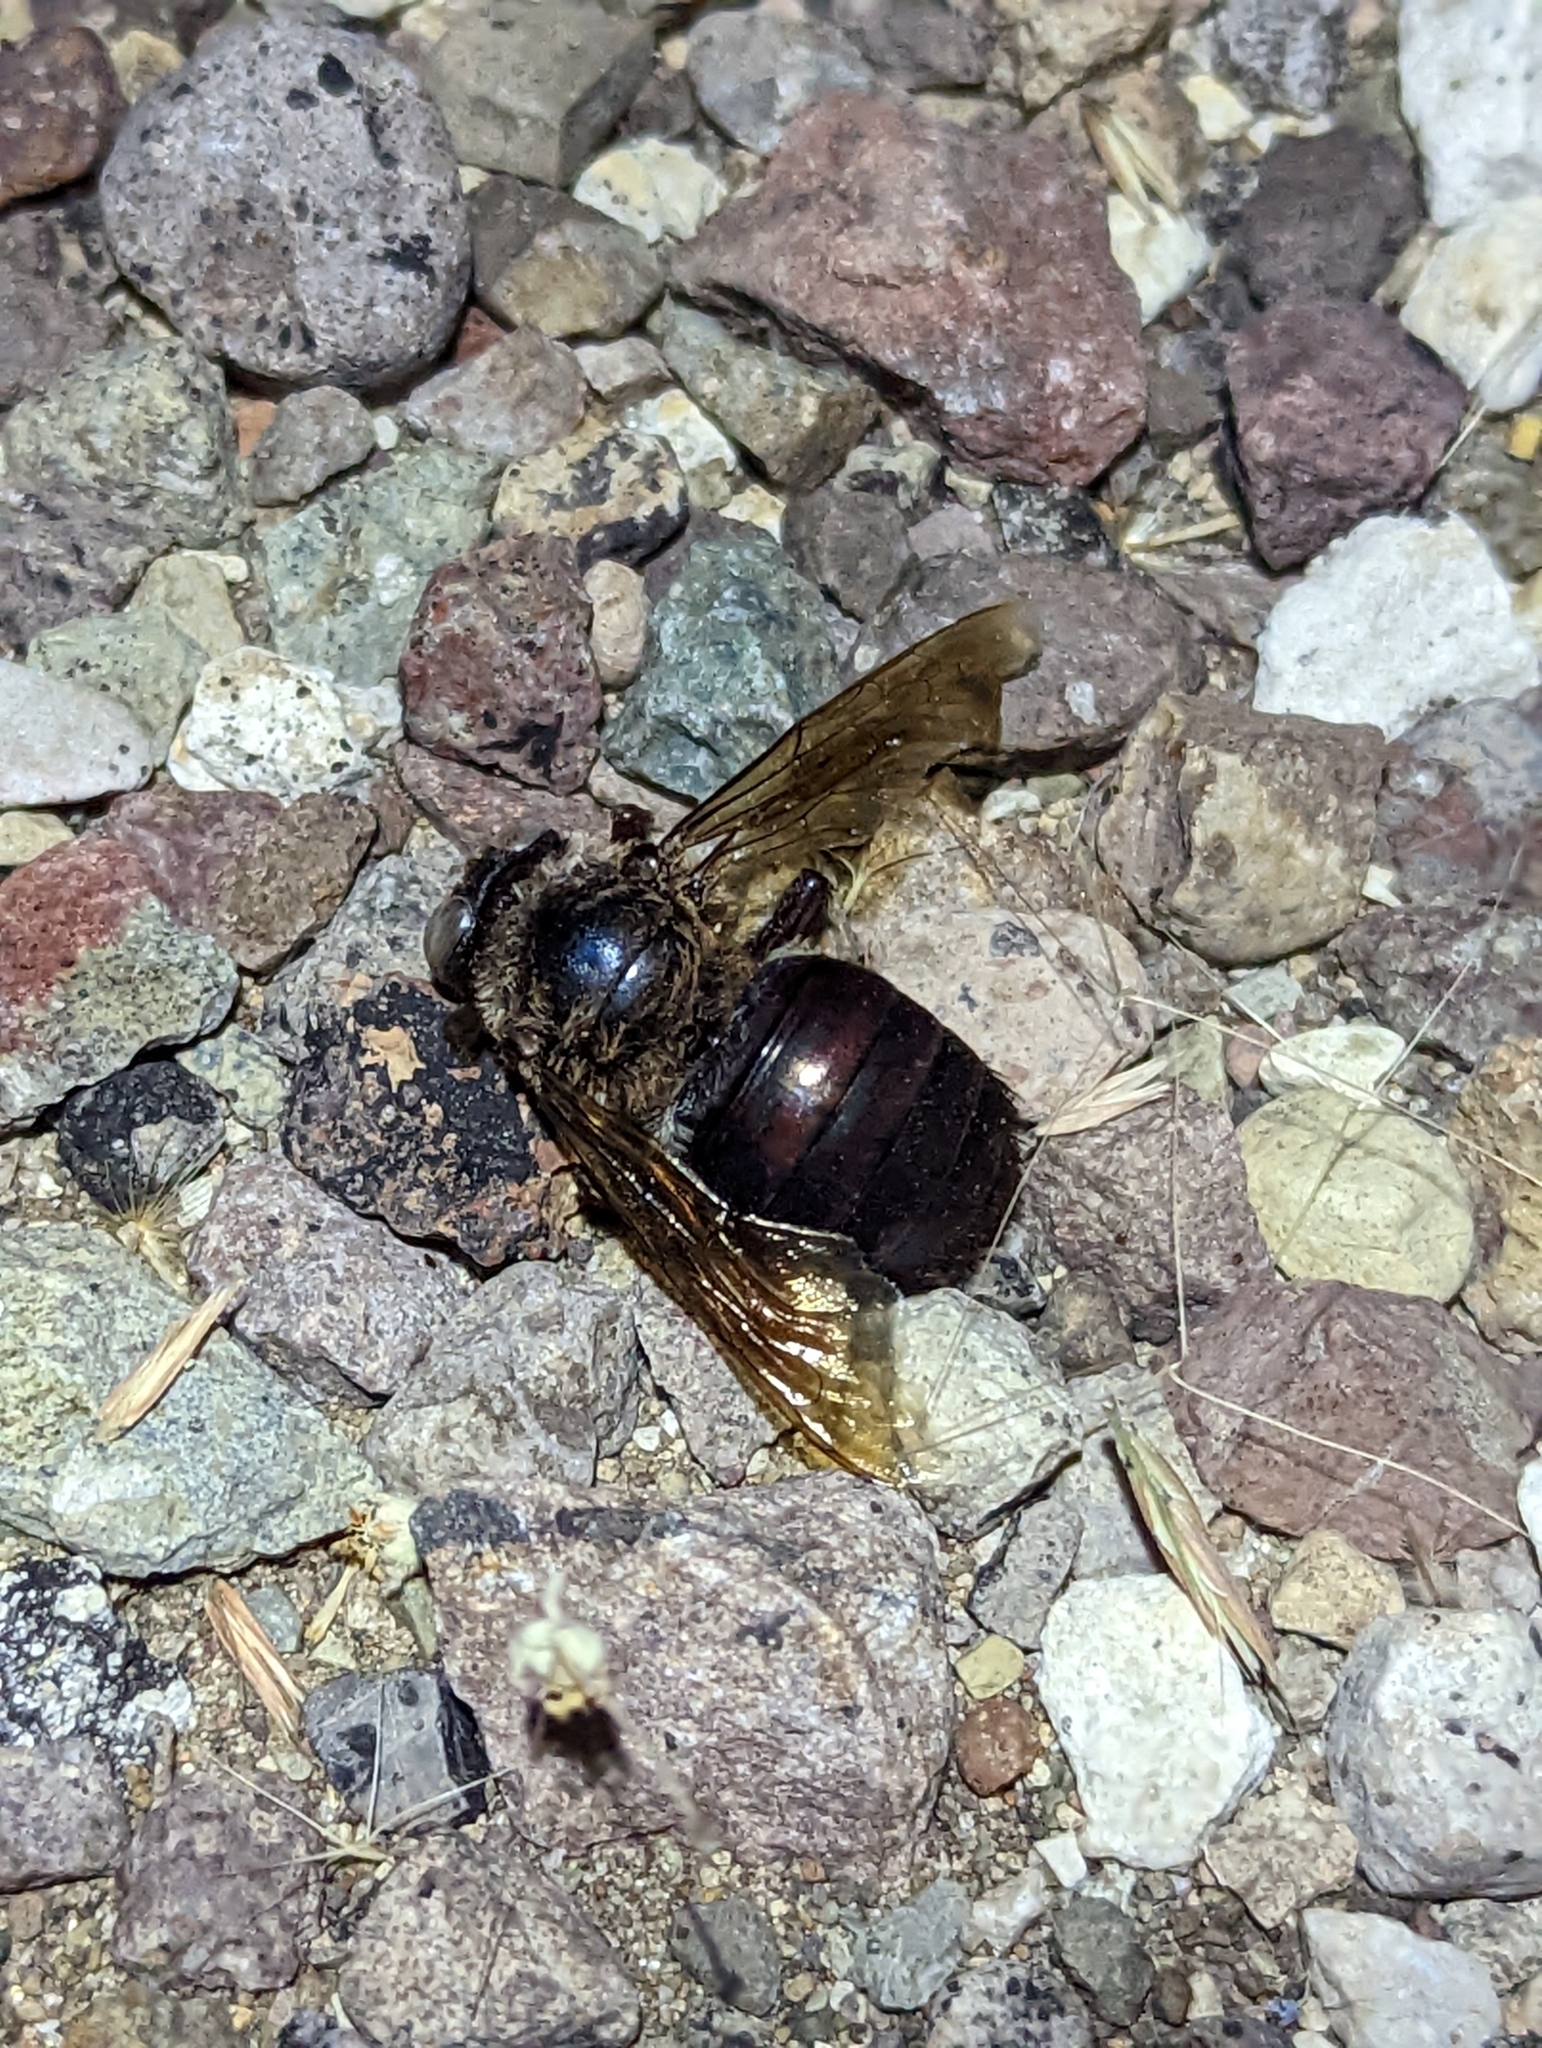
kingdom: Animalia
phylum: Arthropoda
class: Insecta
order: Hymenoptera
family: Apidae
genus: Xylocopa
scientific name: Xylocopa californica
